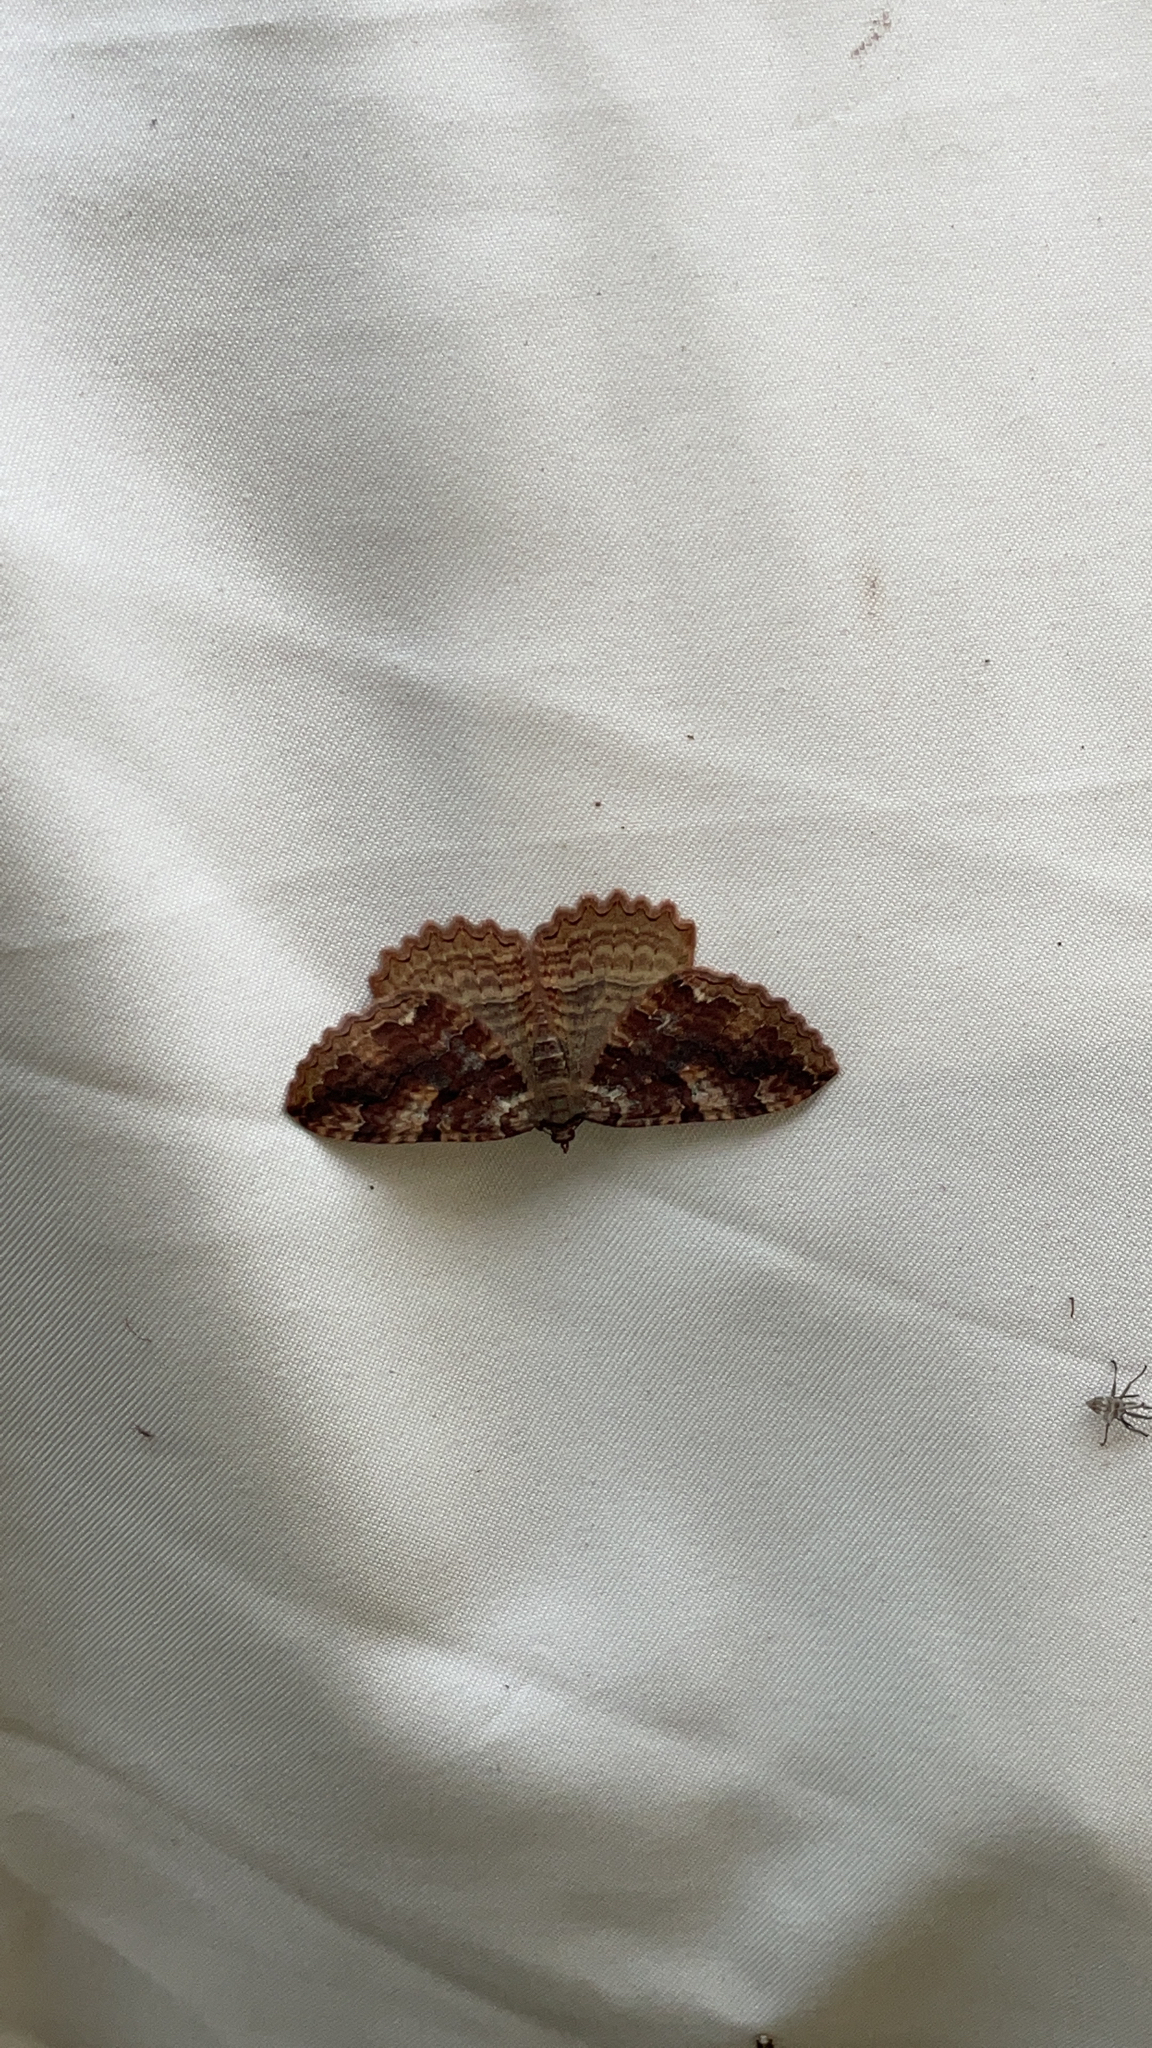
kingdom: Animalia
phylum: Arthropoda
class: Insecta
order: Lepidoptera
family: Geometridae
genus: Triphosa
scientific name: Triphosa haesitata
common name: Tissue moth
